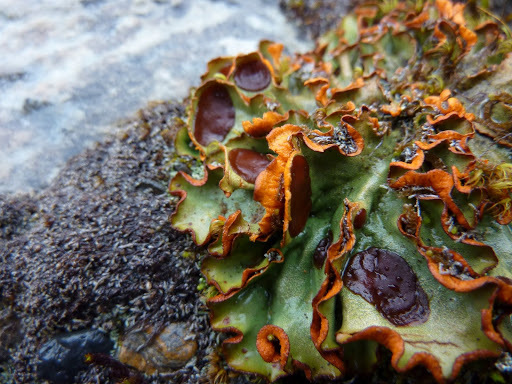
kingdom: Fungi
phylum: Ascomycota
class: Lecanoromycetes
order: Peltigerales
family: Peltigeraceae
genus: Solorina
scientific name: Solorina crocea
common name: Mountain saffron
